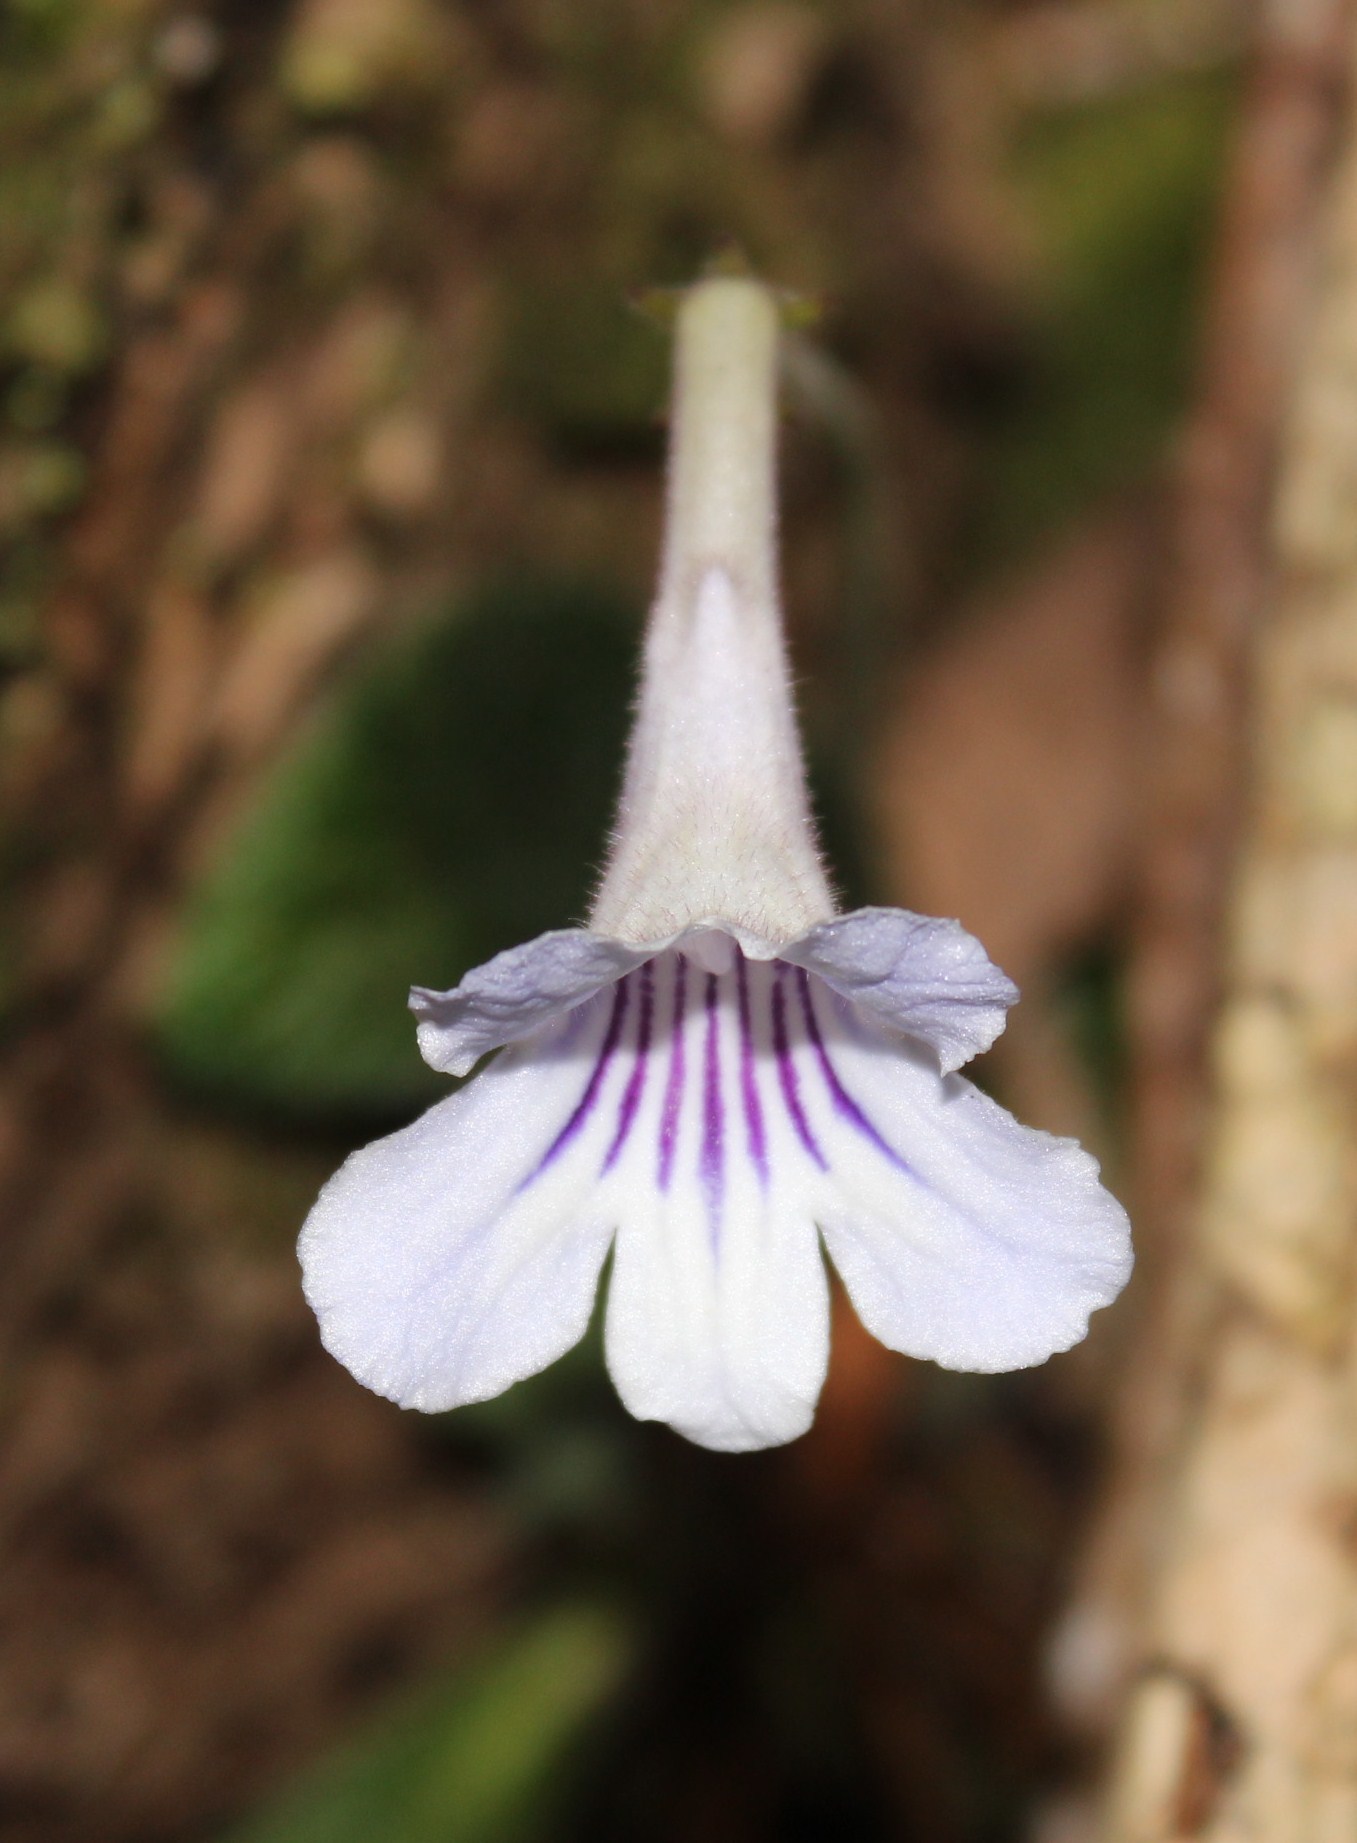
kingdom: Plantae
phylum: Tracheophyta
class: Magnoliopsida
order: Lamiales
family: Gesneriaceae
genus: Streptocarpus
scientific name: Streptocarpus rexii
